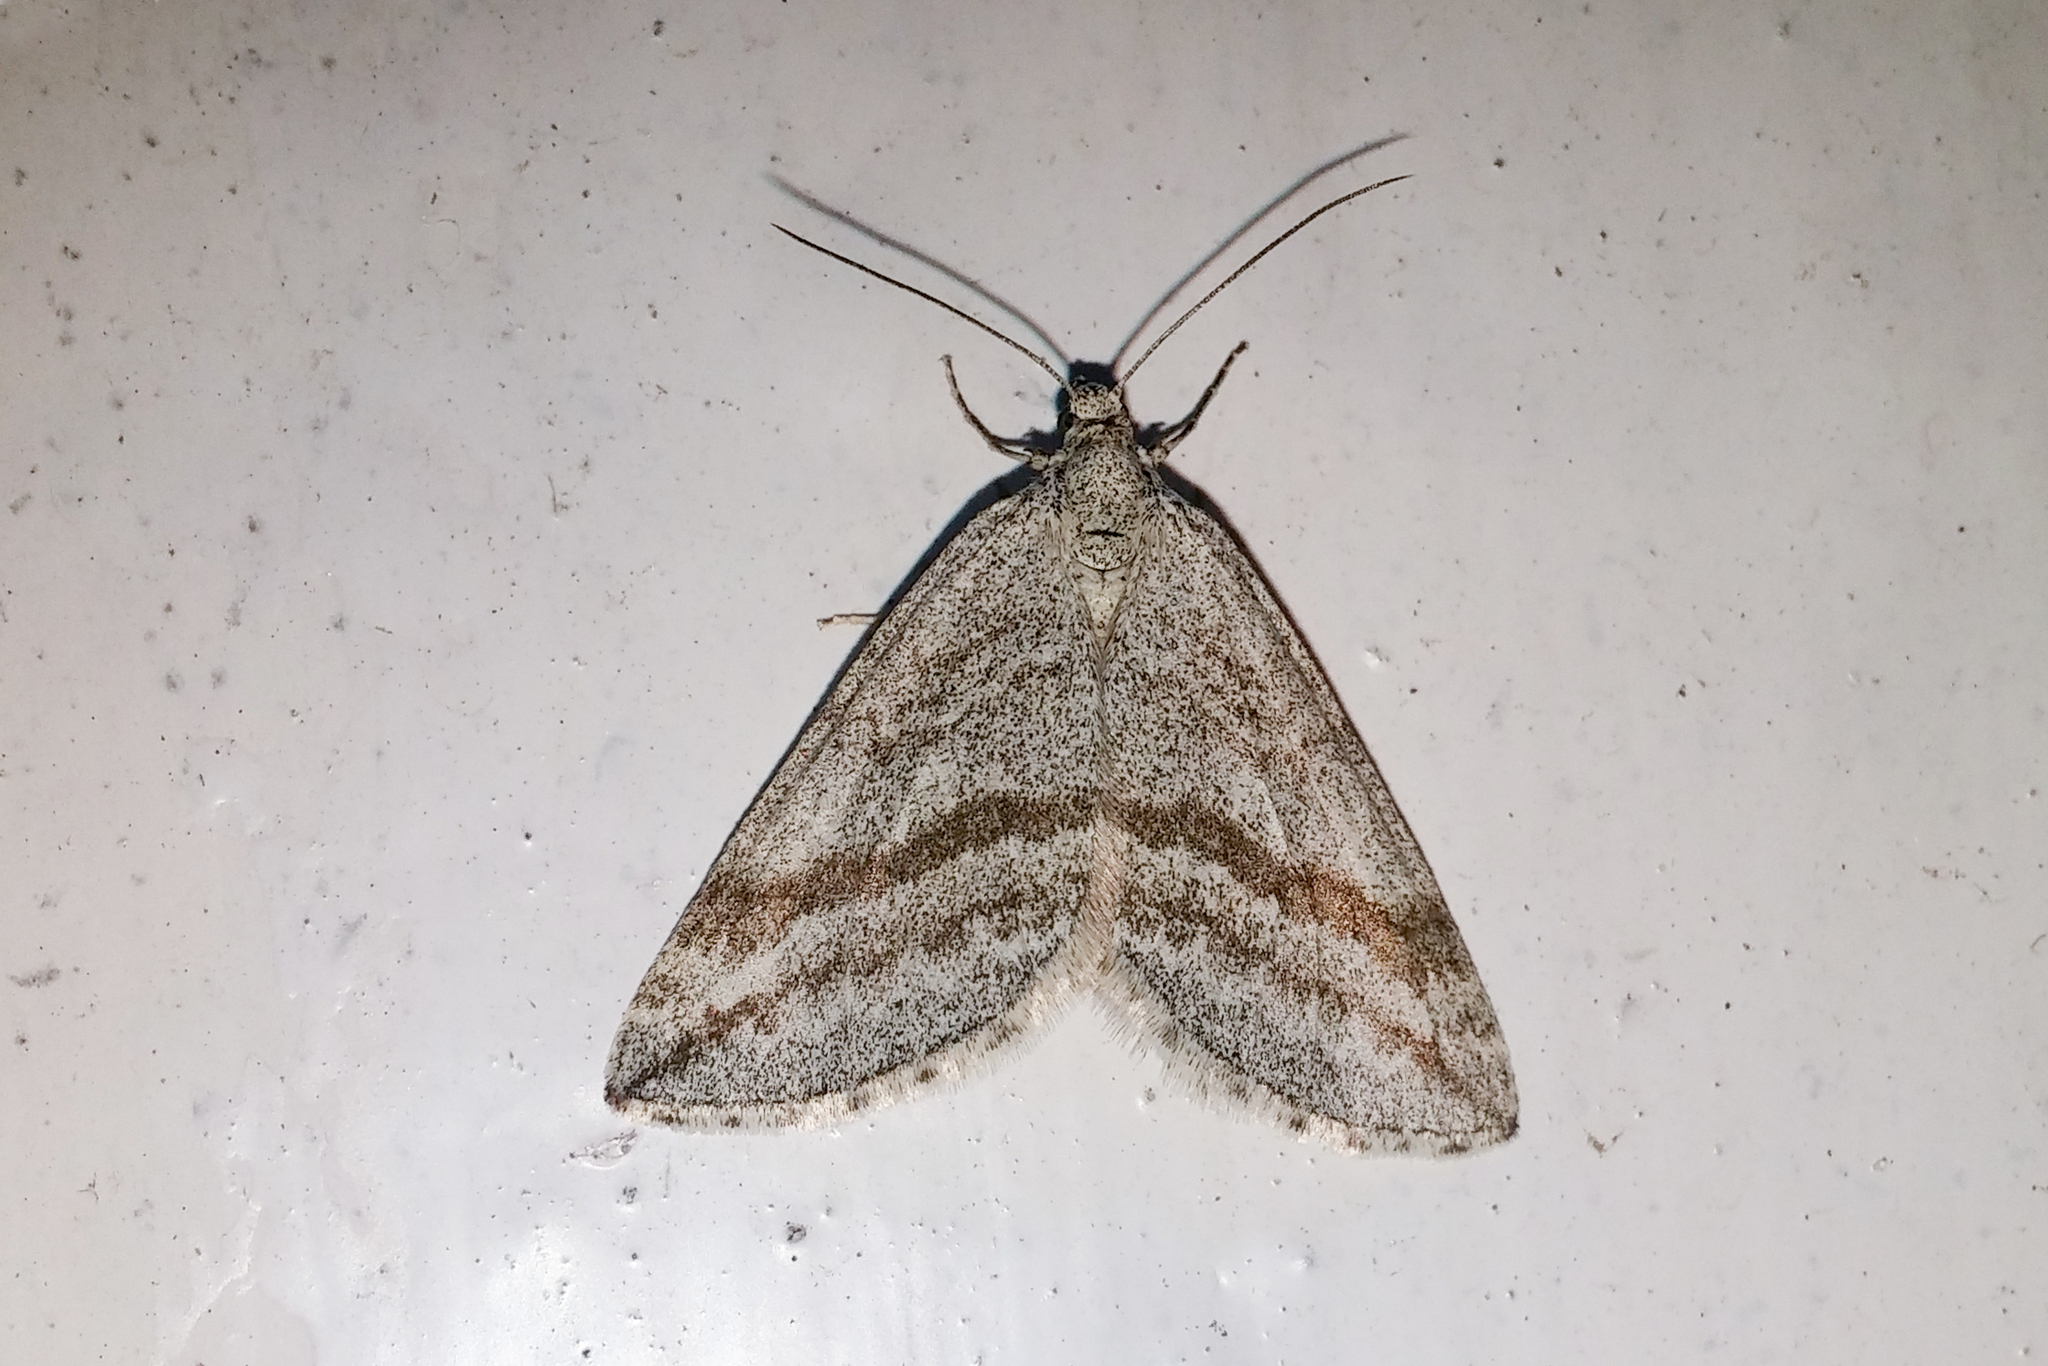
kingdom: Animalia
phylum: Arthropoda
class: Insecta
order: Lepidoptera
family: Geometridae
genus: Lithostege
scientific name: Lithostege coassata
